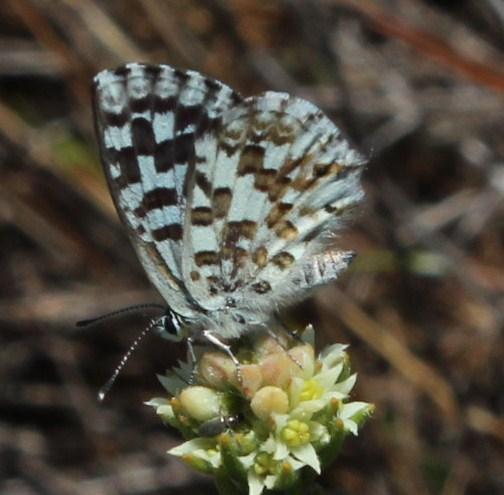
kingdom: Animalia
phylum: Arthropoda
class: Insecta
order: Lepidoptera
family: Lycaenidae
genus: Tarucus
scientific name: Tarucus thespis
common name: Vivid dotted blue
